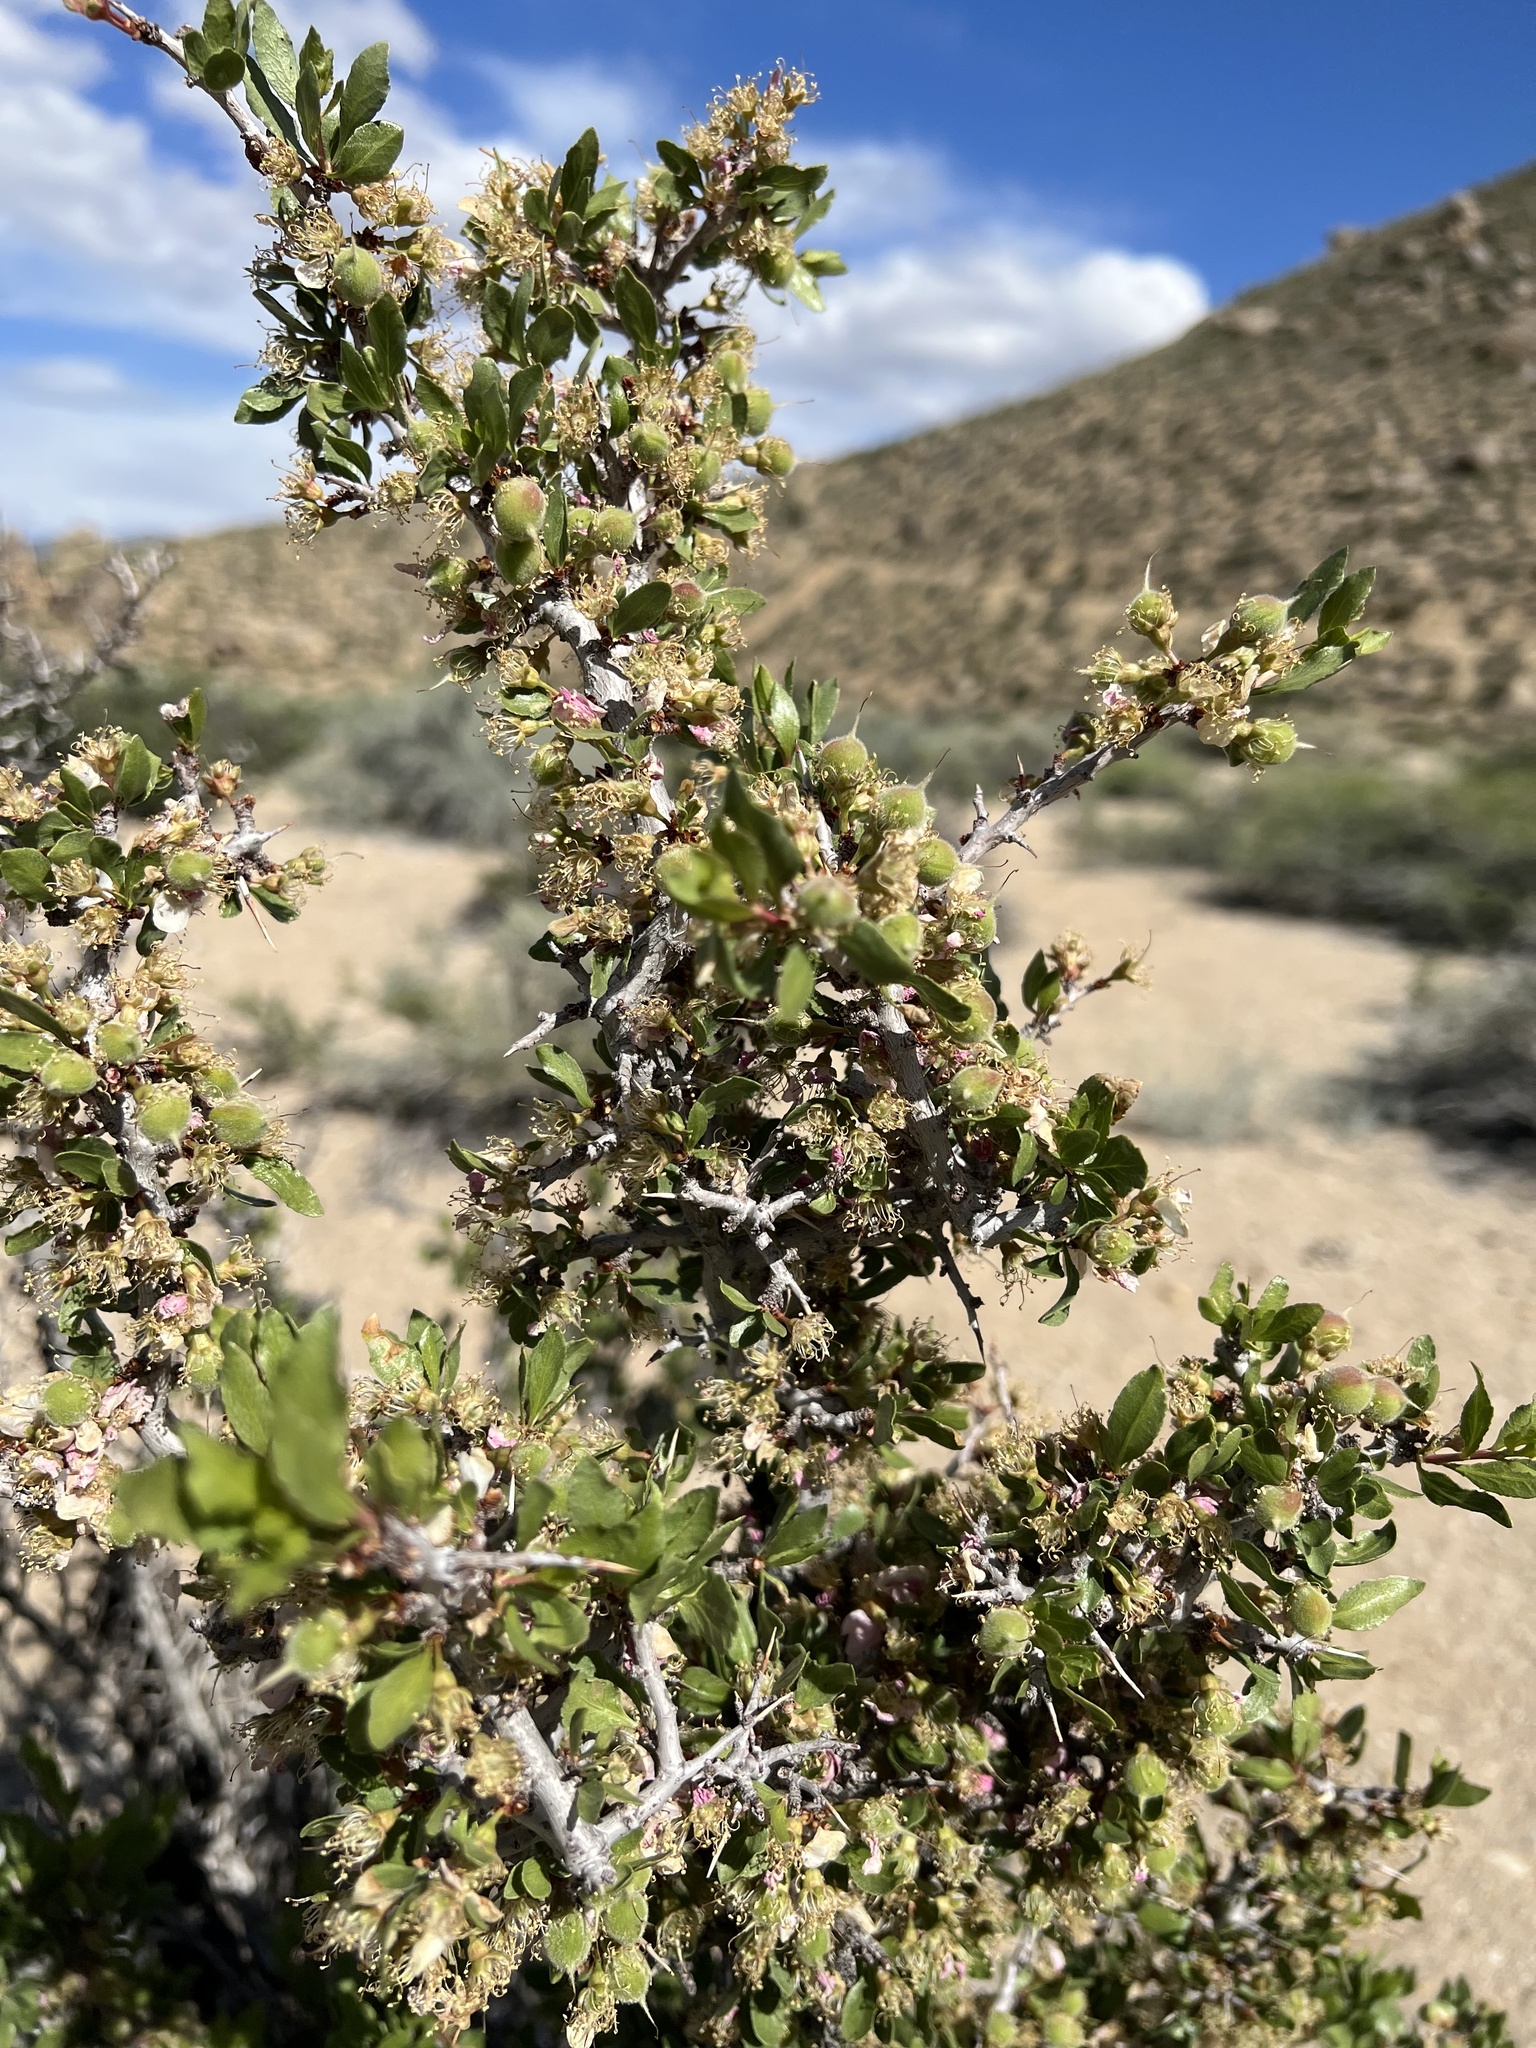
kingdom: Plantae
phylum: Tracheophyta
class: Magnoliopsida
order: Rosales
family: Rosaceae
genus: Prunus
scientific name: Prunus andersonii
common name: Desert peach
